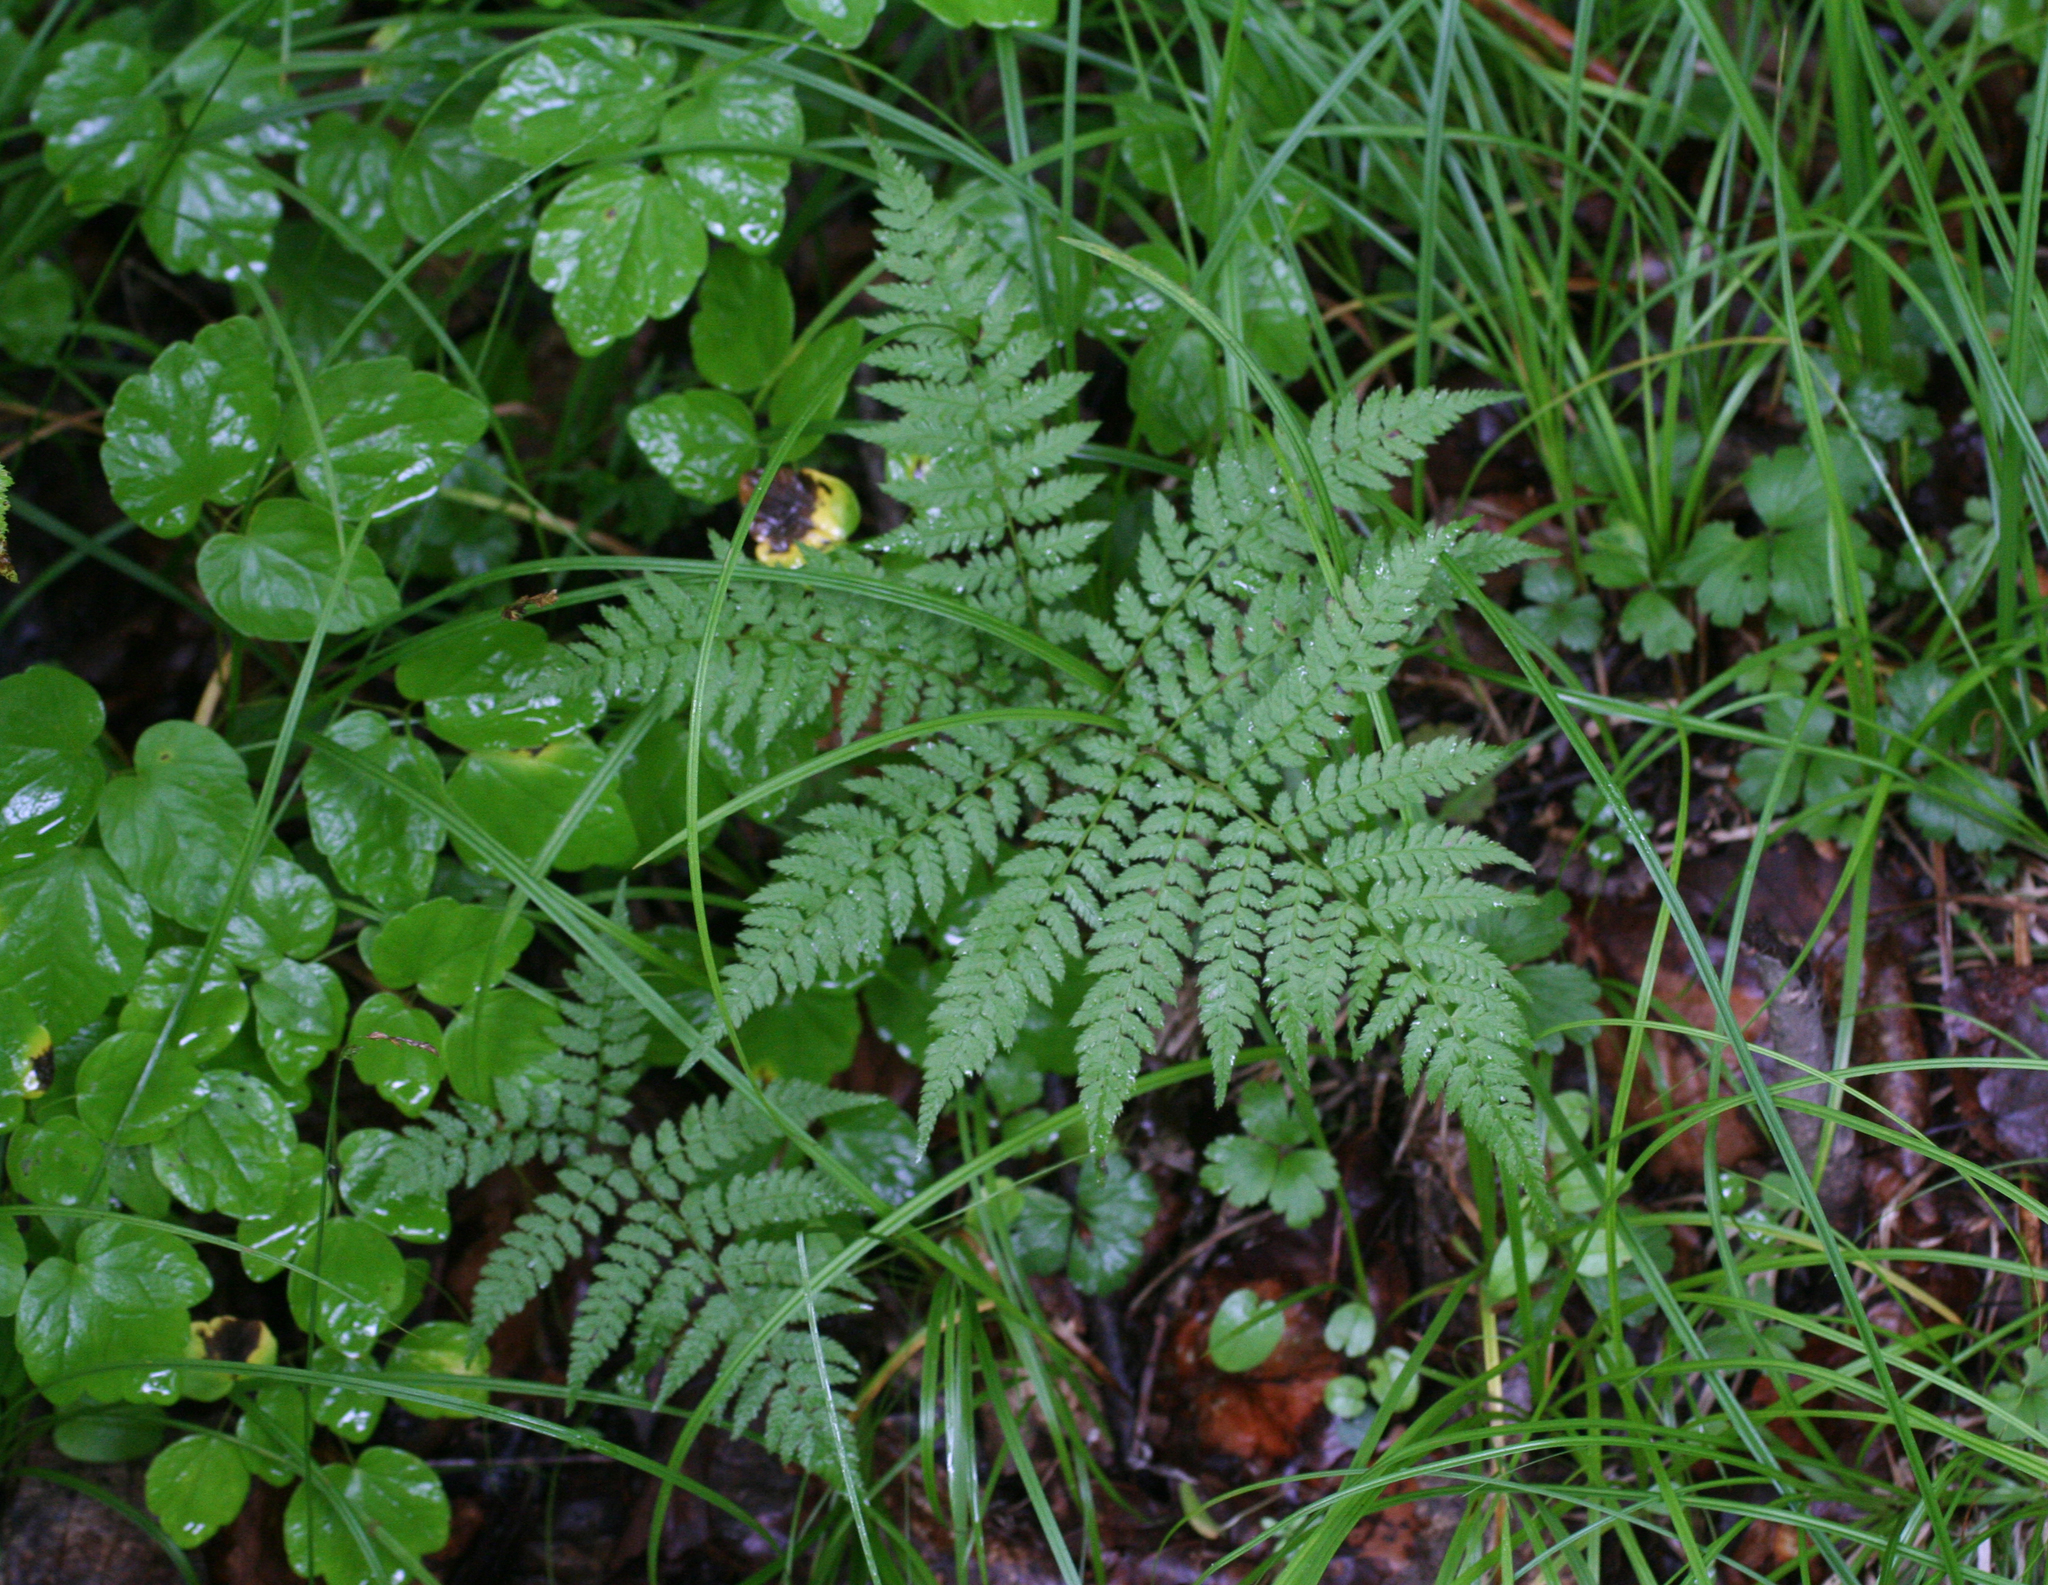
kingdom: Plantae
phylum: Tracheophyta
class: Polypodiopsida
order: Polypodiales
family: Athyriaceae
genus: Athyrium
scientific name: Athyrium spinulosum
